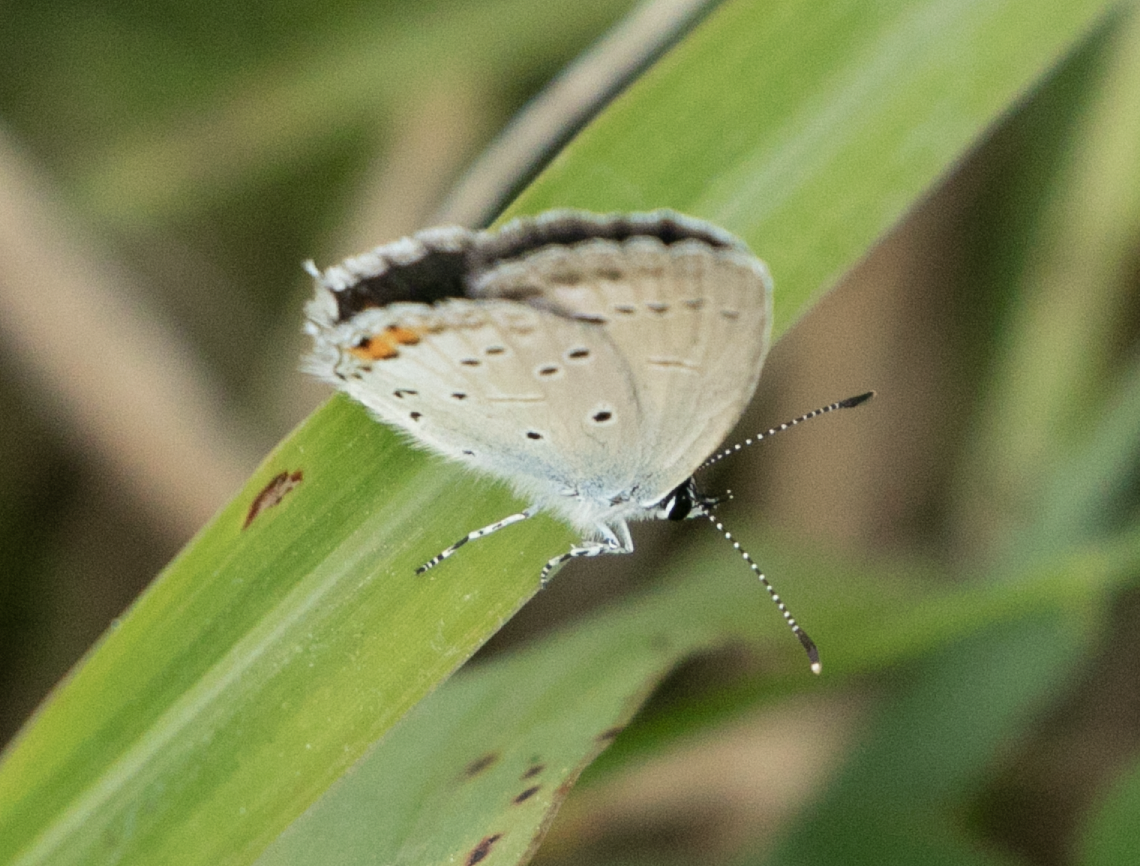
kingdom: Animalia
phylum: Arthropoda
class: Insecta
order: Lepidoptera
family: Lycaenidae
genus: Elkalyce
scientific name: Elkalyce argiades
